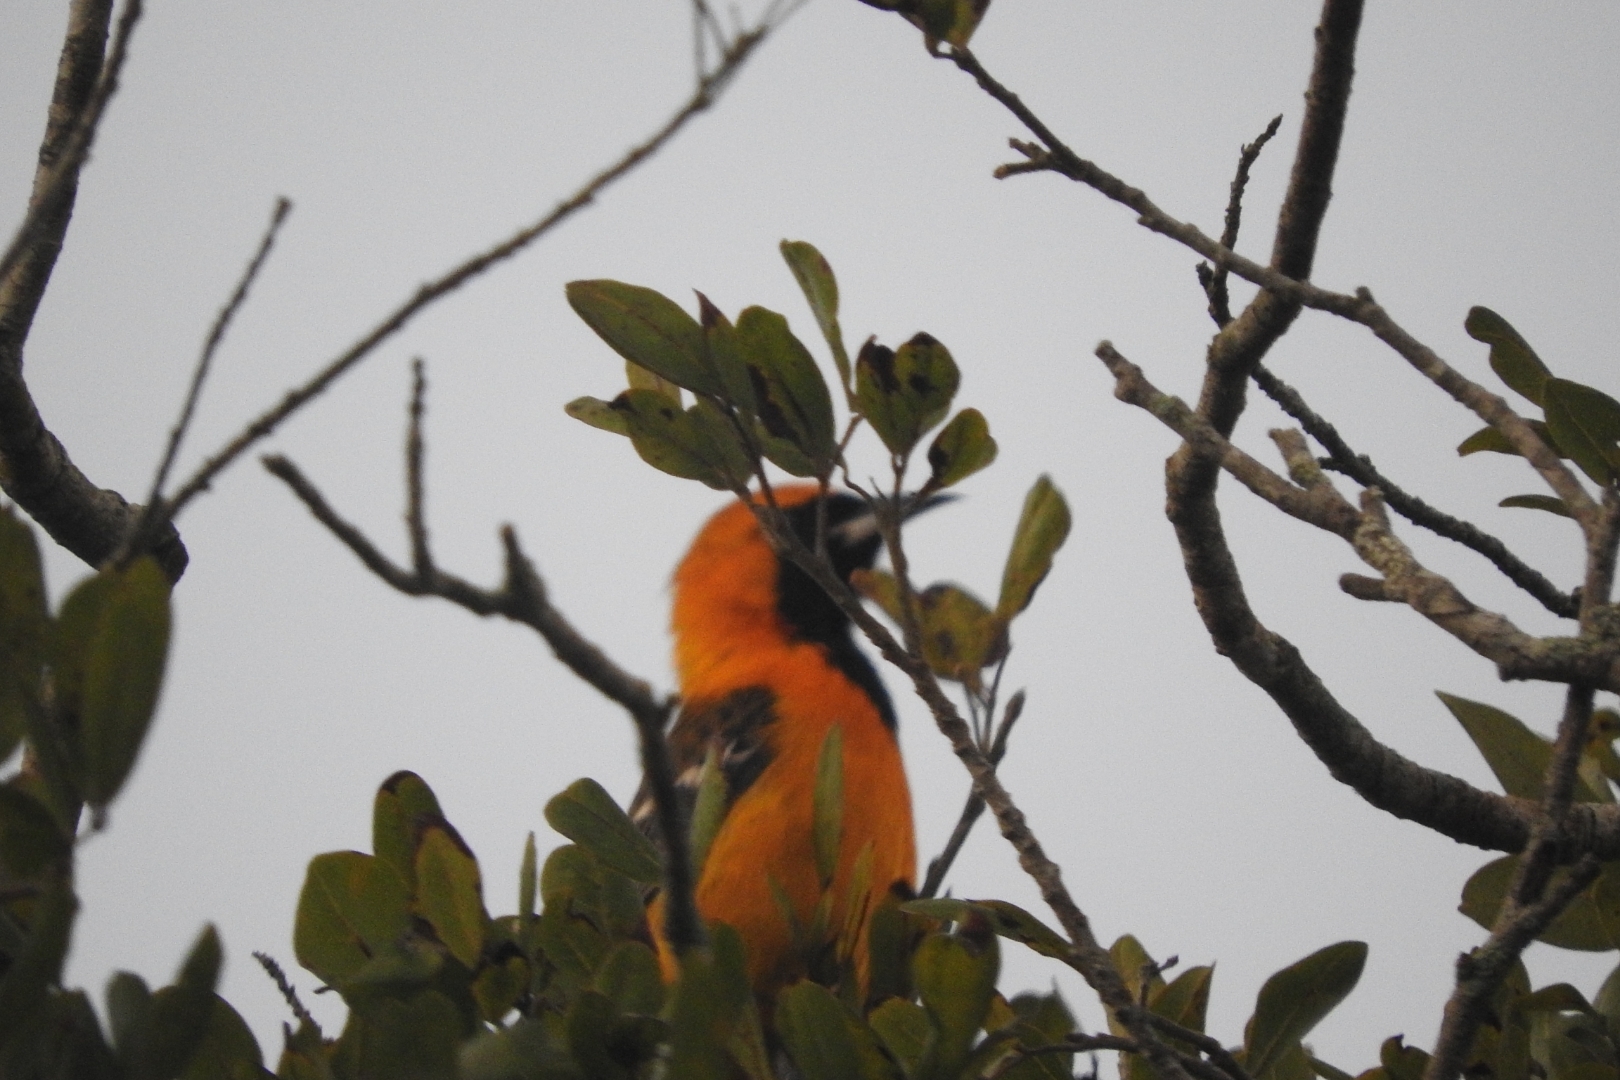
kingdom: Animalia
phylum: Chordata
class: Aves
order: Passeriformes
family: Icteridae
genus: Icterus
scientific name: Icterus cucullatus
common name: Hooded oriole
